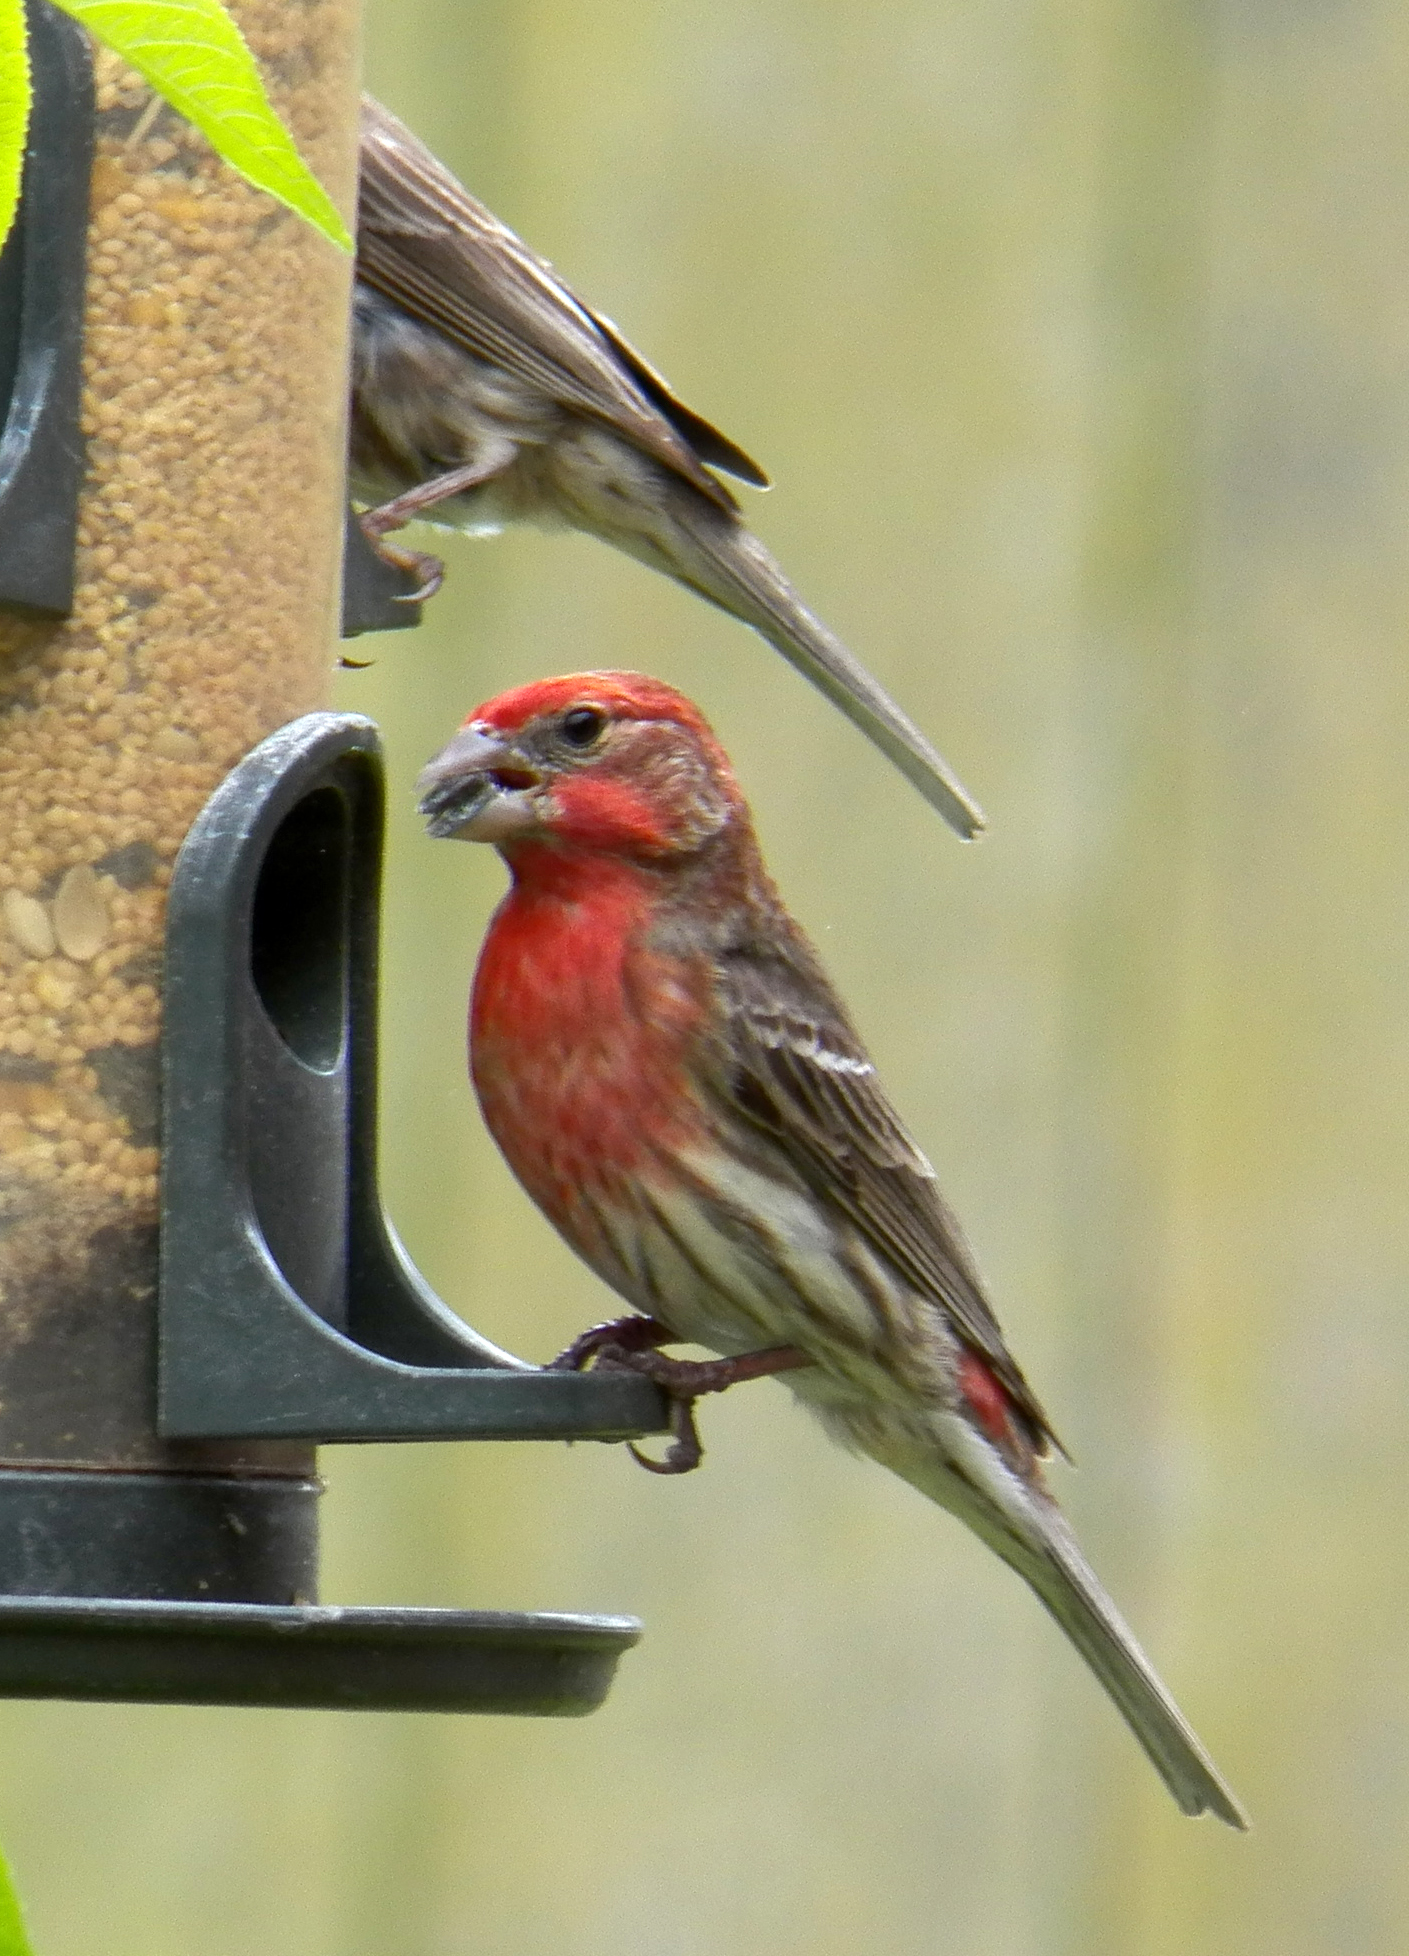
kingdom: Animalia
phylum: Chordata
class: Aves
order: Passeriformes
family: Fringillidae
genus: Haemorhous
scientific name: Haemorhous mexicanus
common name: House finch
